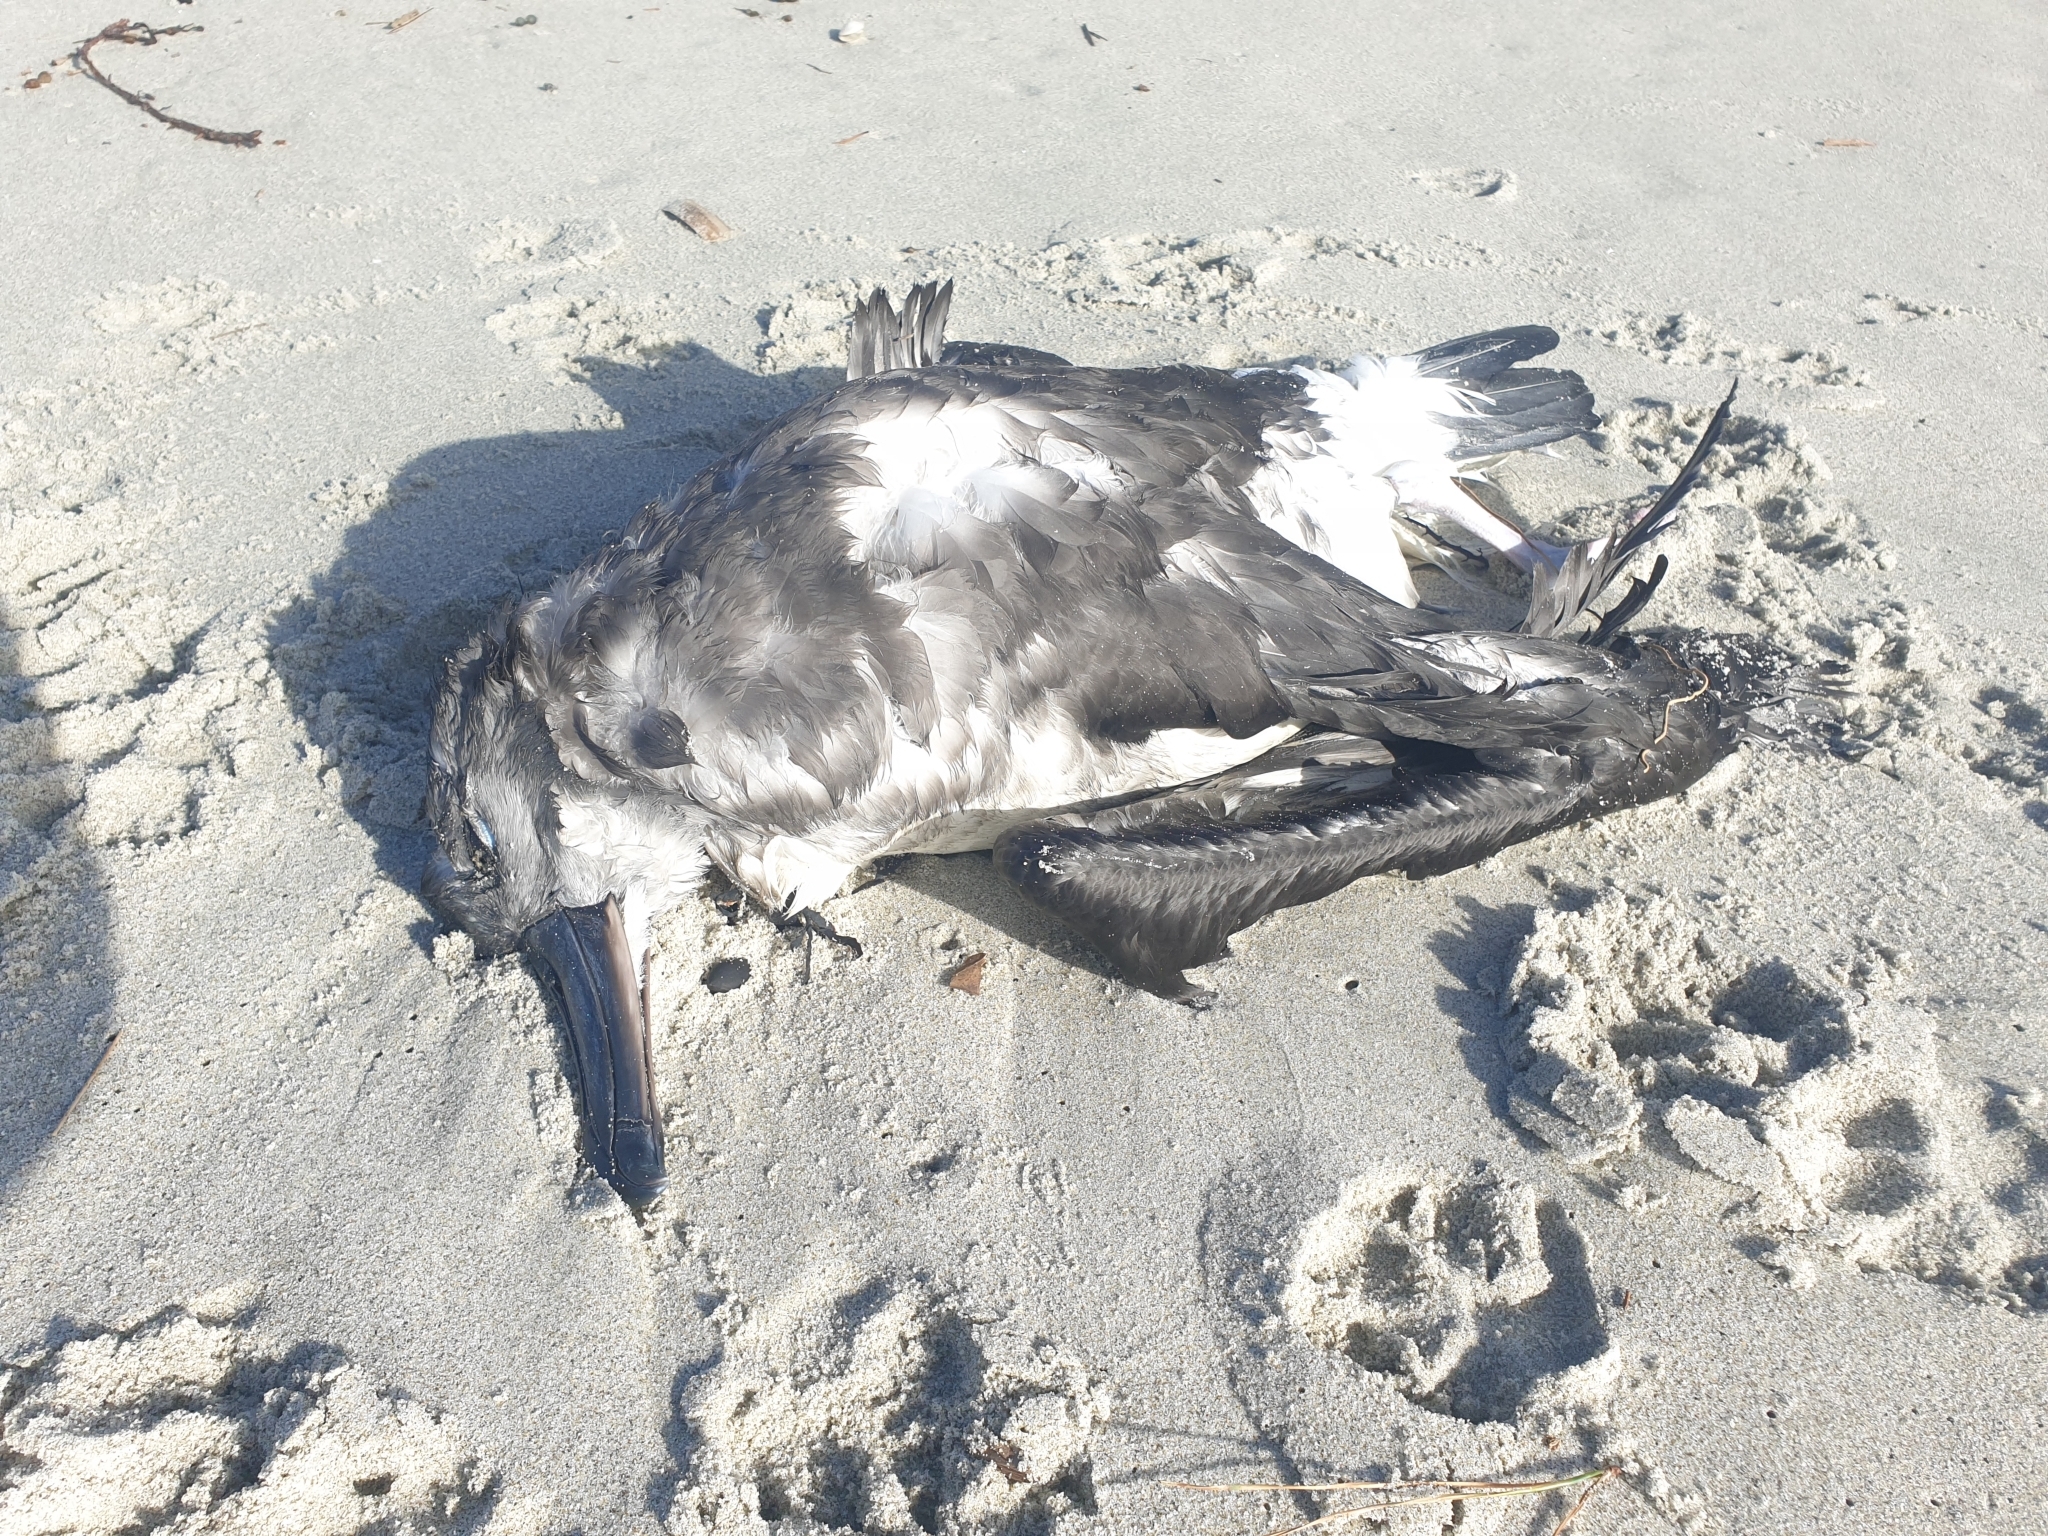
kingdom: Animalia
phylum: Chordata
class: Aves
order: Procellariiformes
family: Diomedeidae
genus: Thalassarche
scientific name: Thalassarche chrysostoma
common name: Grey-headed albatross
